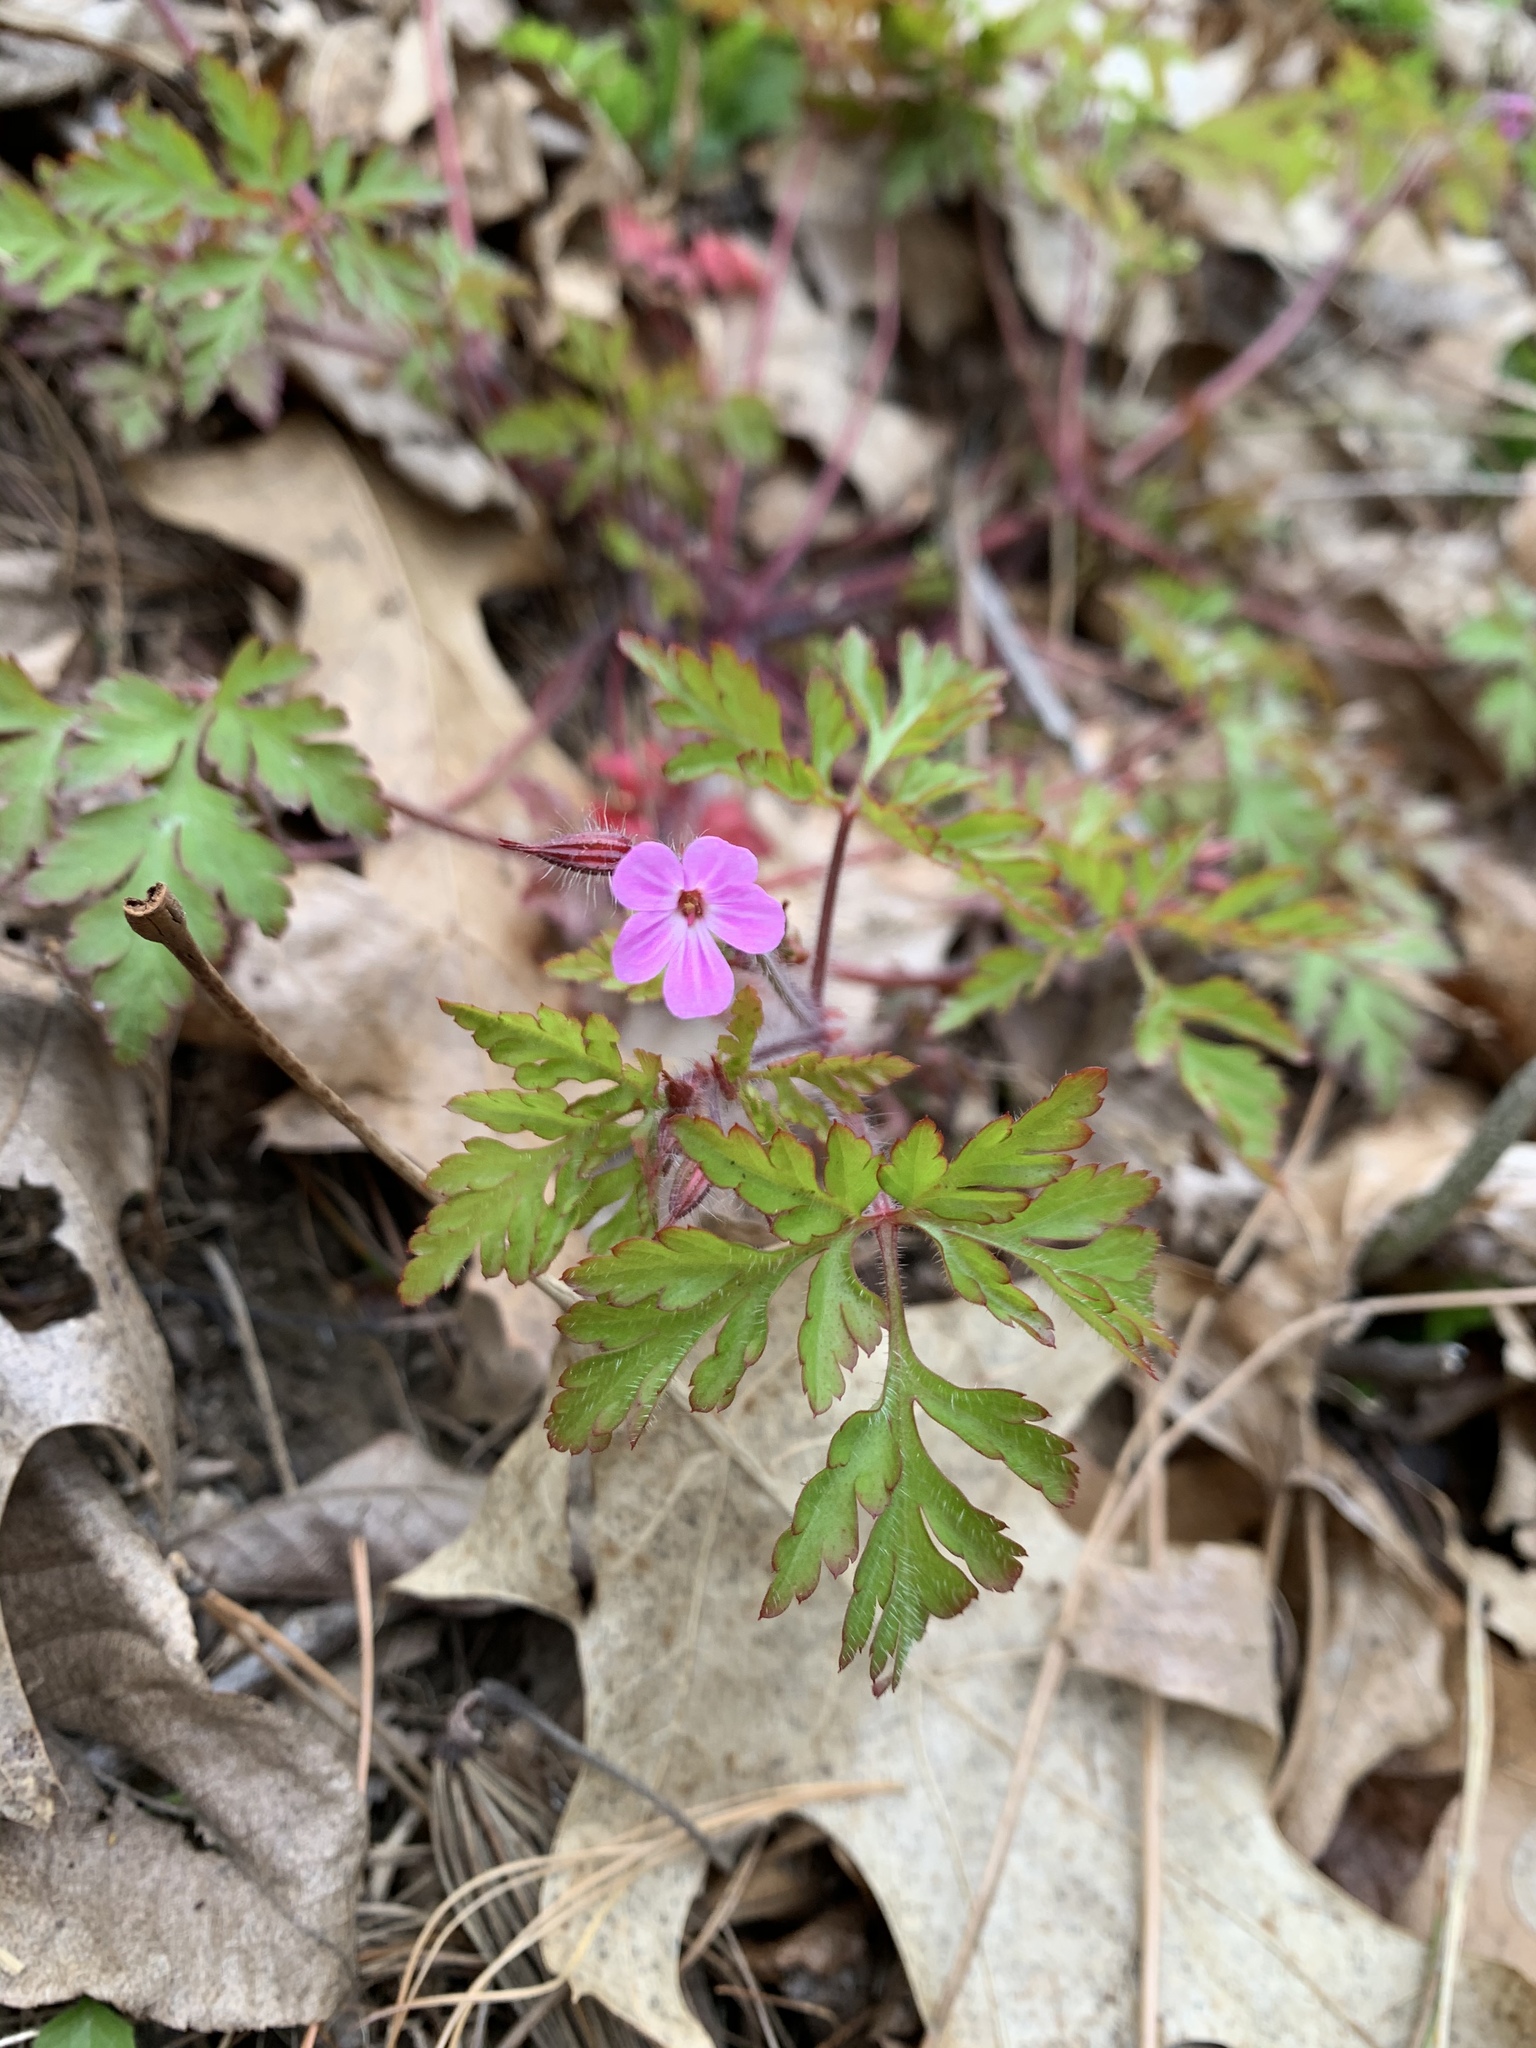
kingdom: Plantae
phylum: Tracheophyta
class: Magnoliopsida
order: Geraniales
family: Geraniaceae
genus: Geranium
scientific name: Geranium robertianum
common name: Herb-robert
